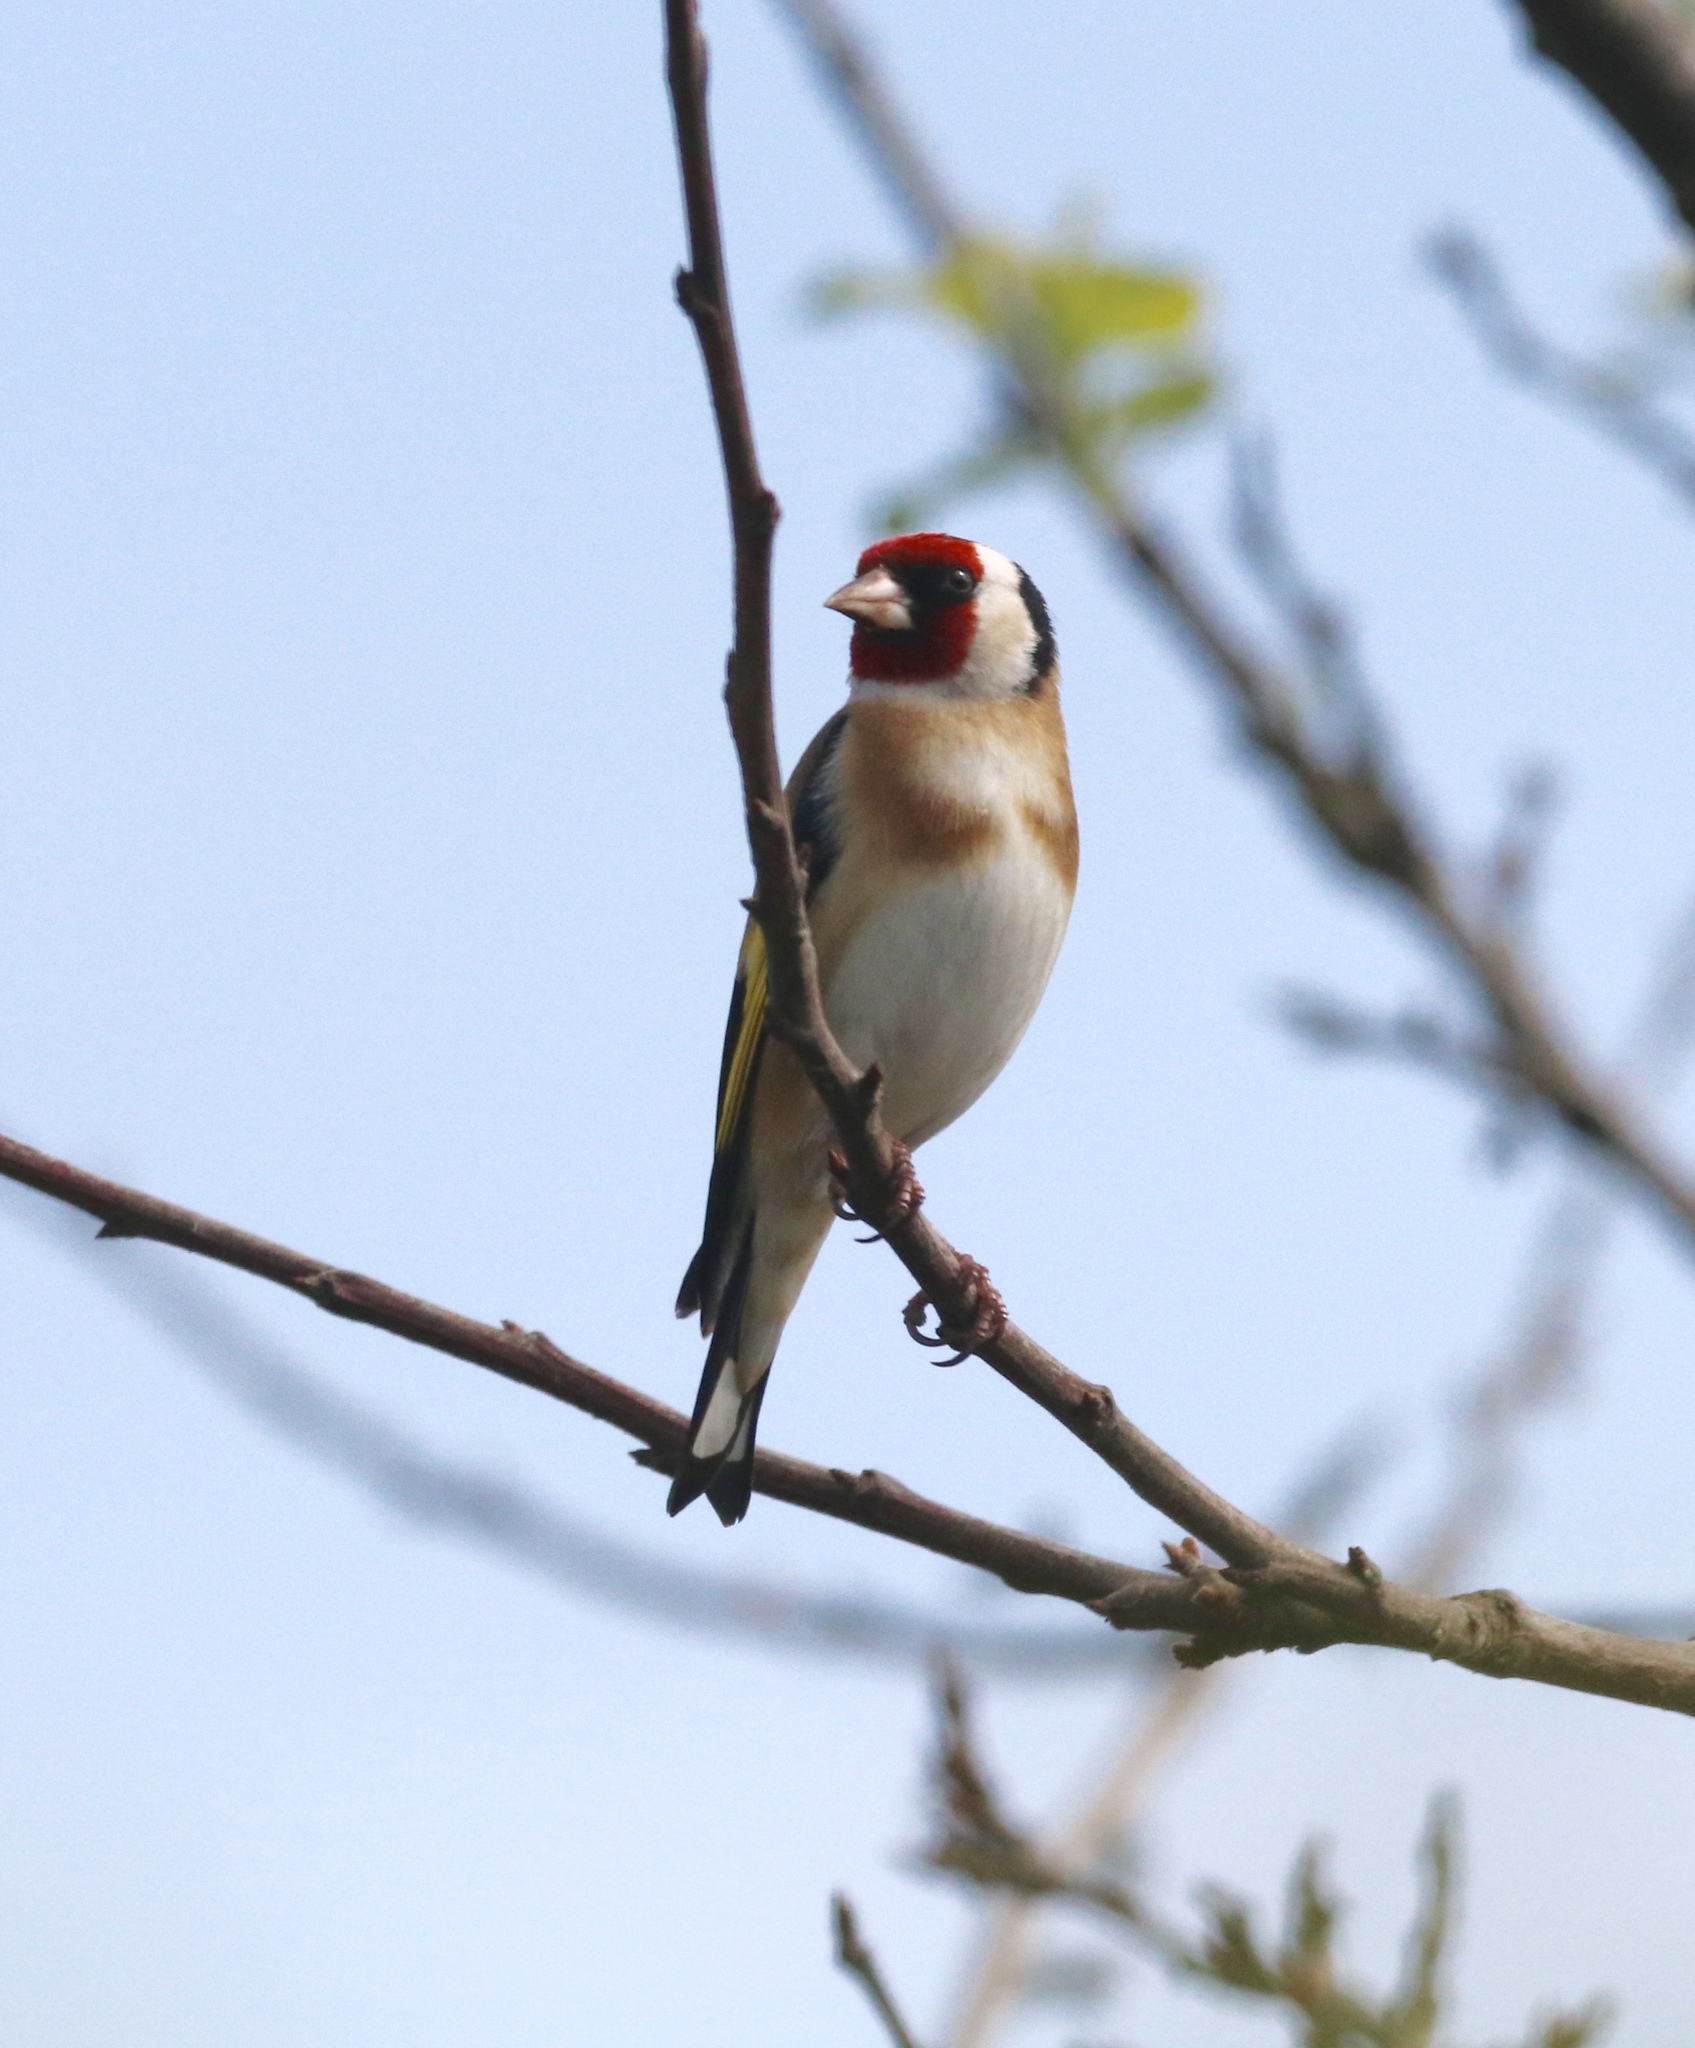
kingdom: Animalia
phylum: Chordata
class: Aves
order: Passeriformes
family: Fringillidae
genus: Carduelis
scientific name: Carduelis carduelis
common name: European goldfinch
